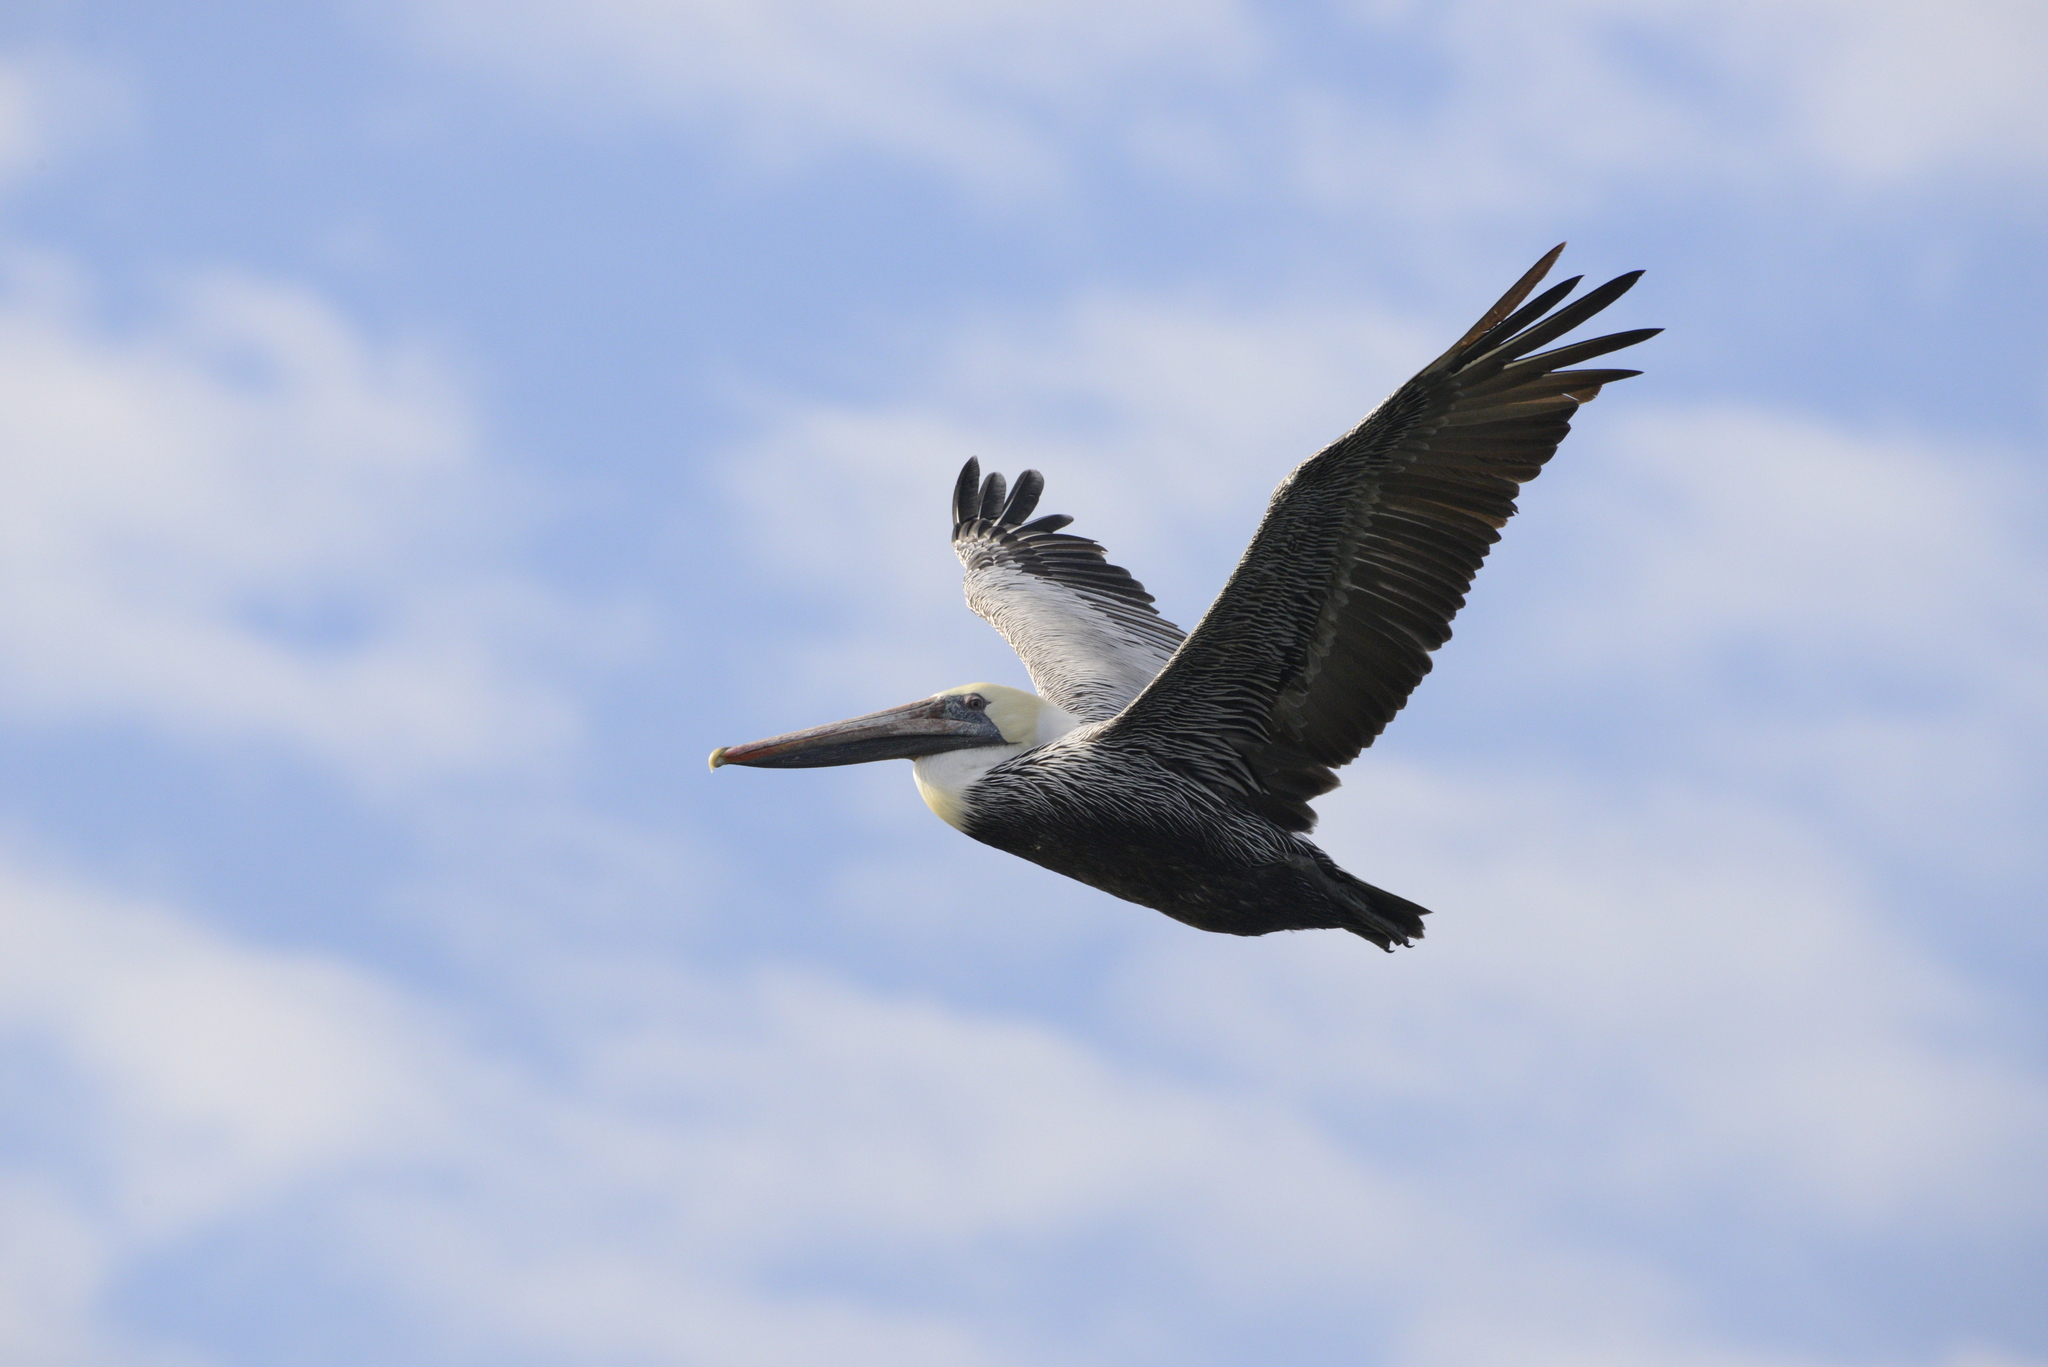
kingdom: Animalia
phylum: Chordata
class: Aves
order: Pelecaniformes
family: Pelecanidae
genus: Pelecanus
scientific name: Pelecanus occidentalis
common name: Brown pelican
